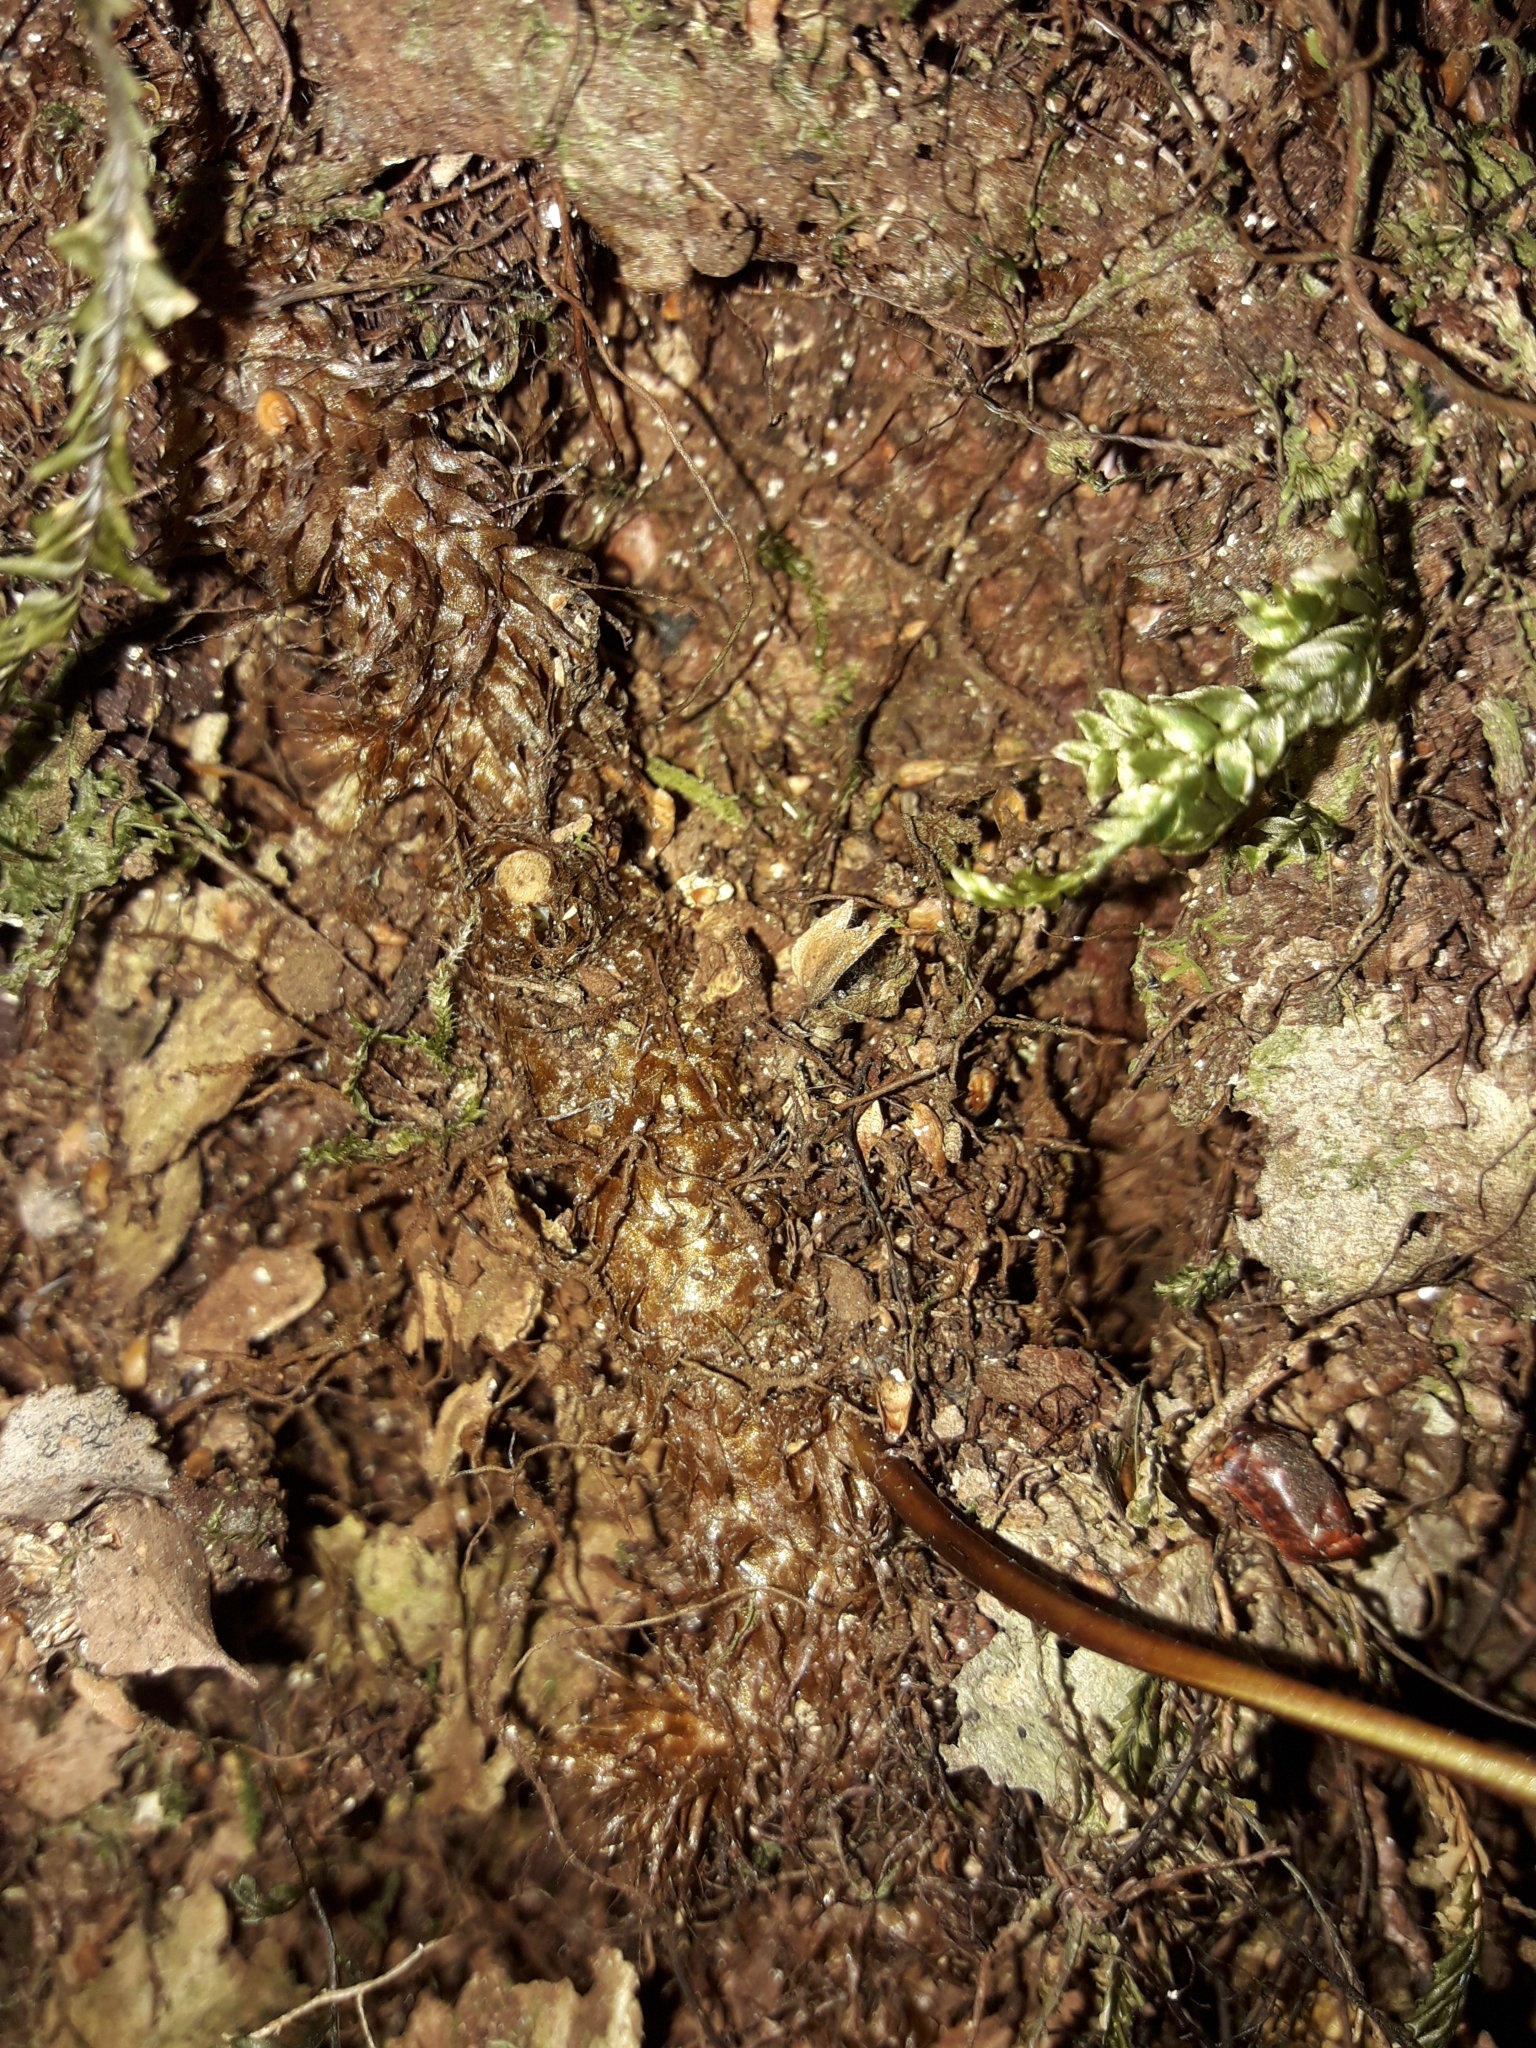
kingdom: Plantae
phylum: Tracheophyta
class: Polypodiopsida
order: Polypodiales
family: Polypodiaceae
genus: Lecanopteris
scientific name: Lecanopteris novae-zealandiae
